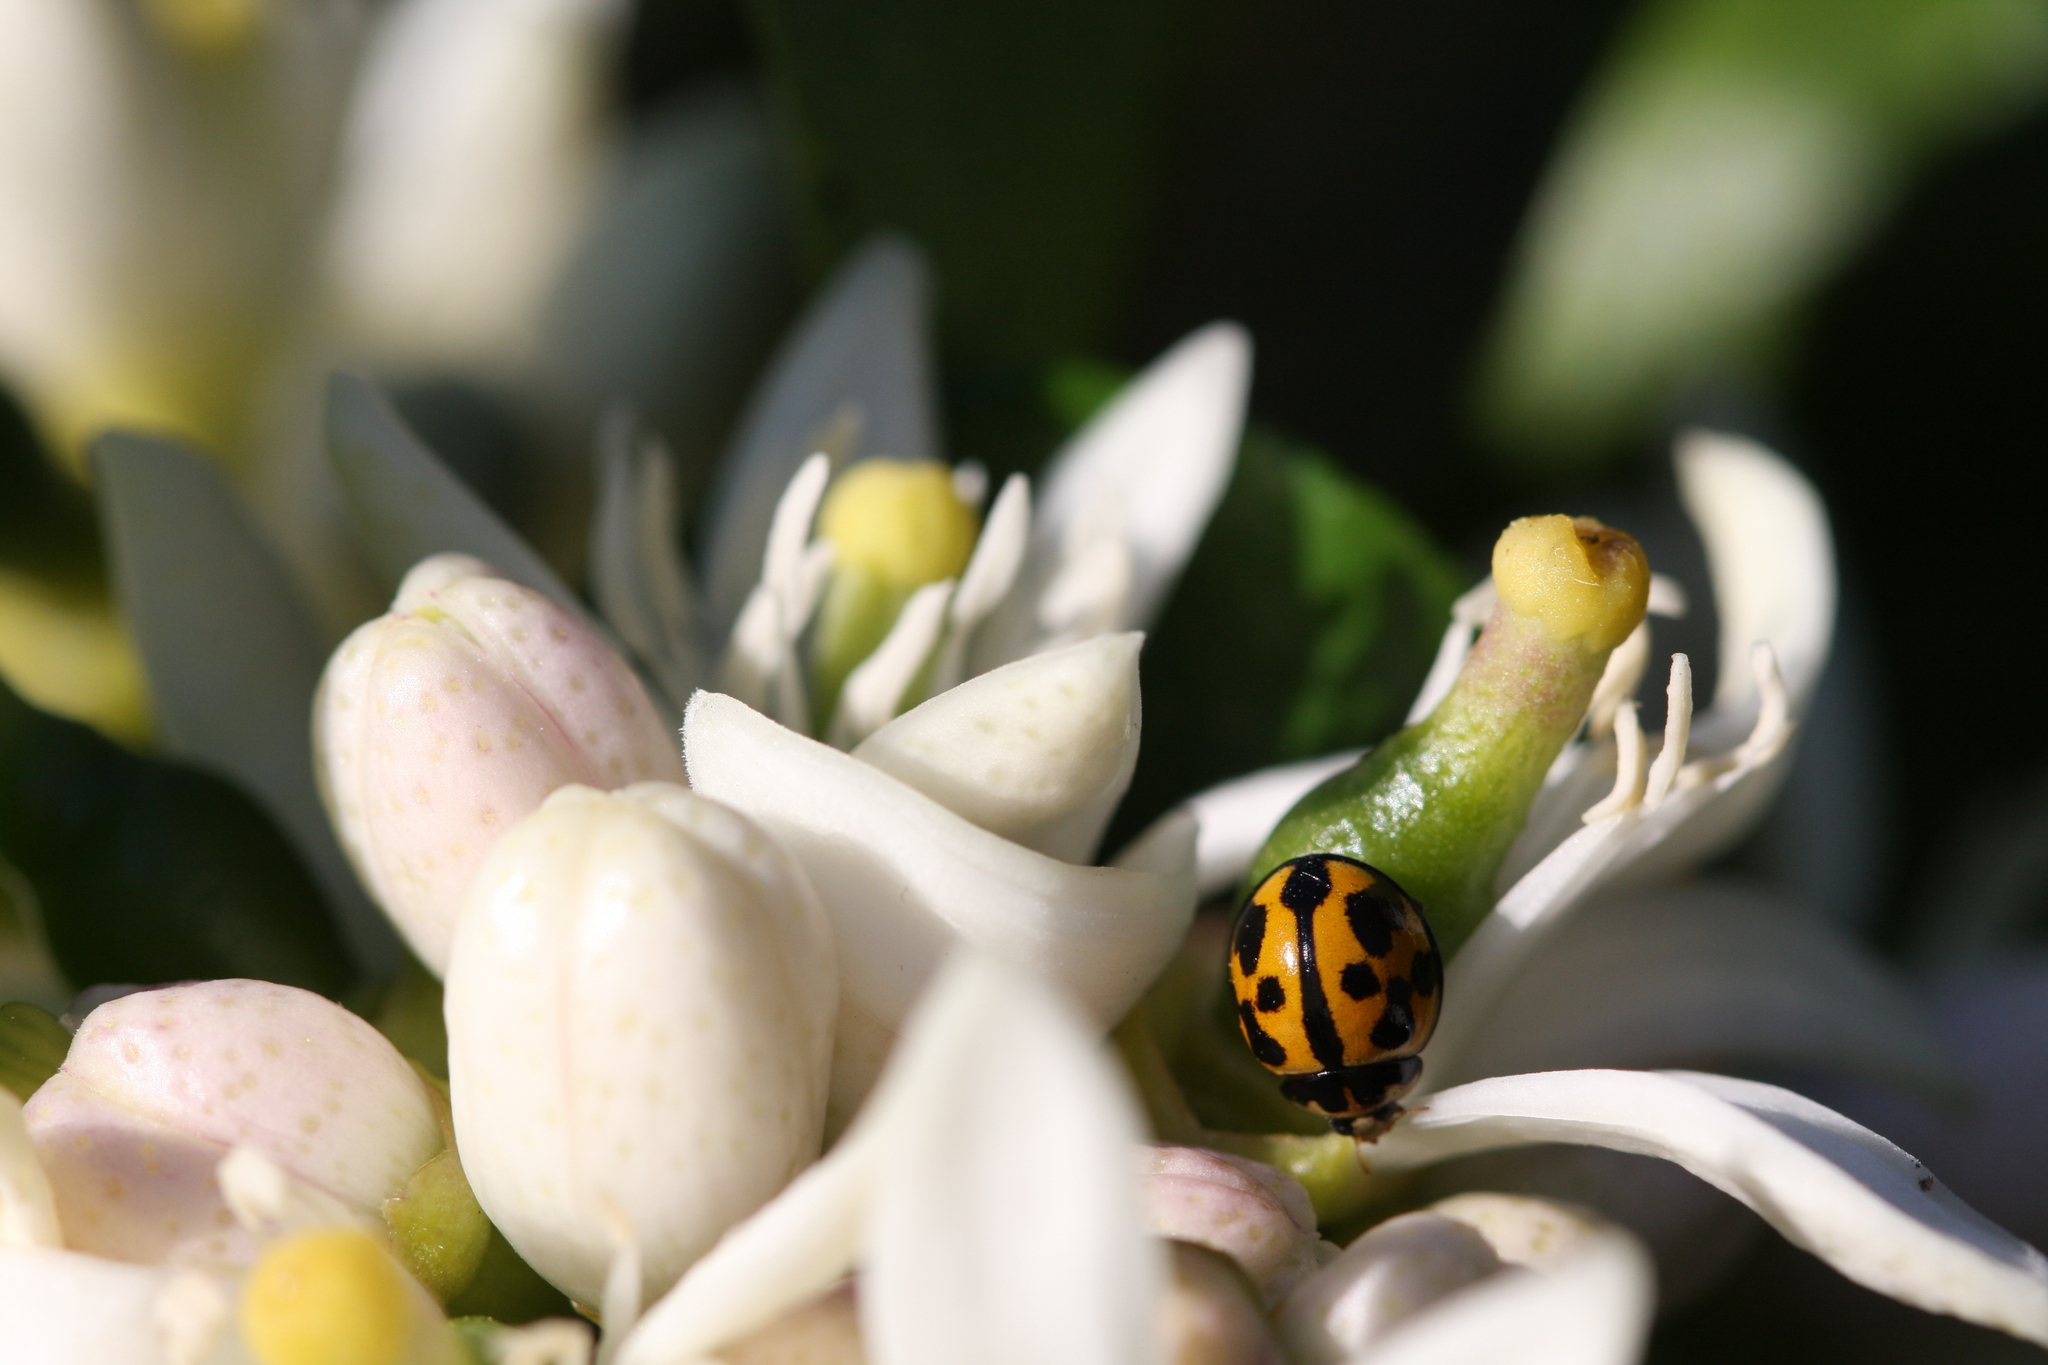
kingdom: Animalia
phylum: Arthropoda
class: Insecta
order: Coleoptera
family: Coccinellidae
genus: Coelophora
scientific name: Coelophora inaequalis
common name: Common australian lady beetle
